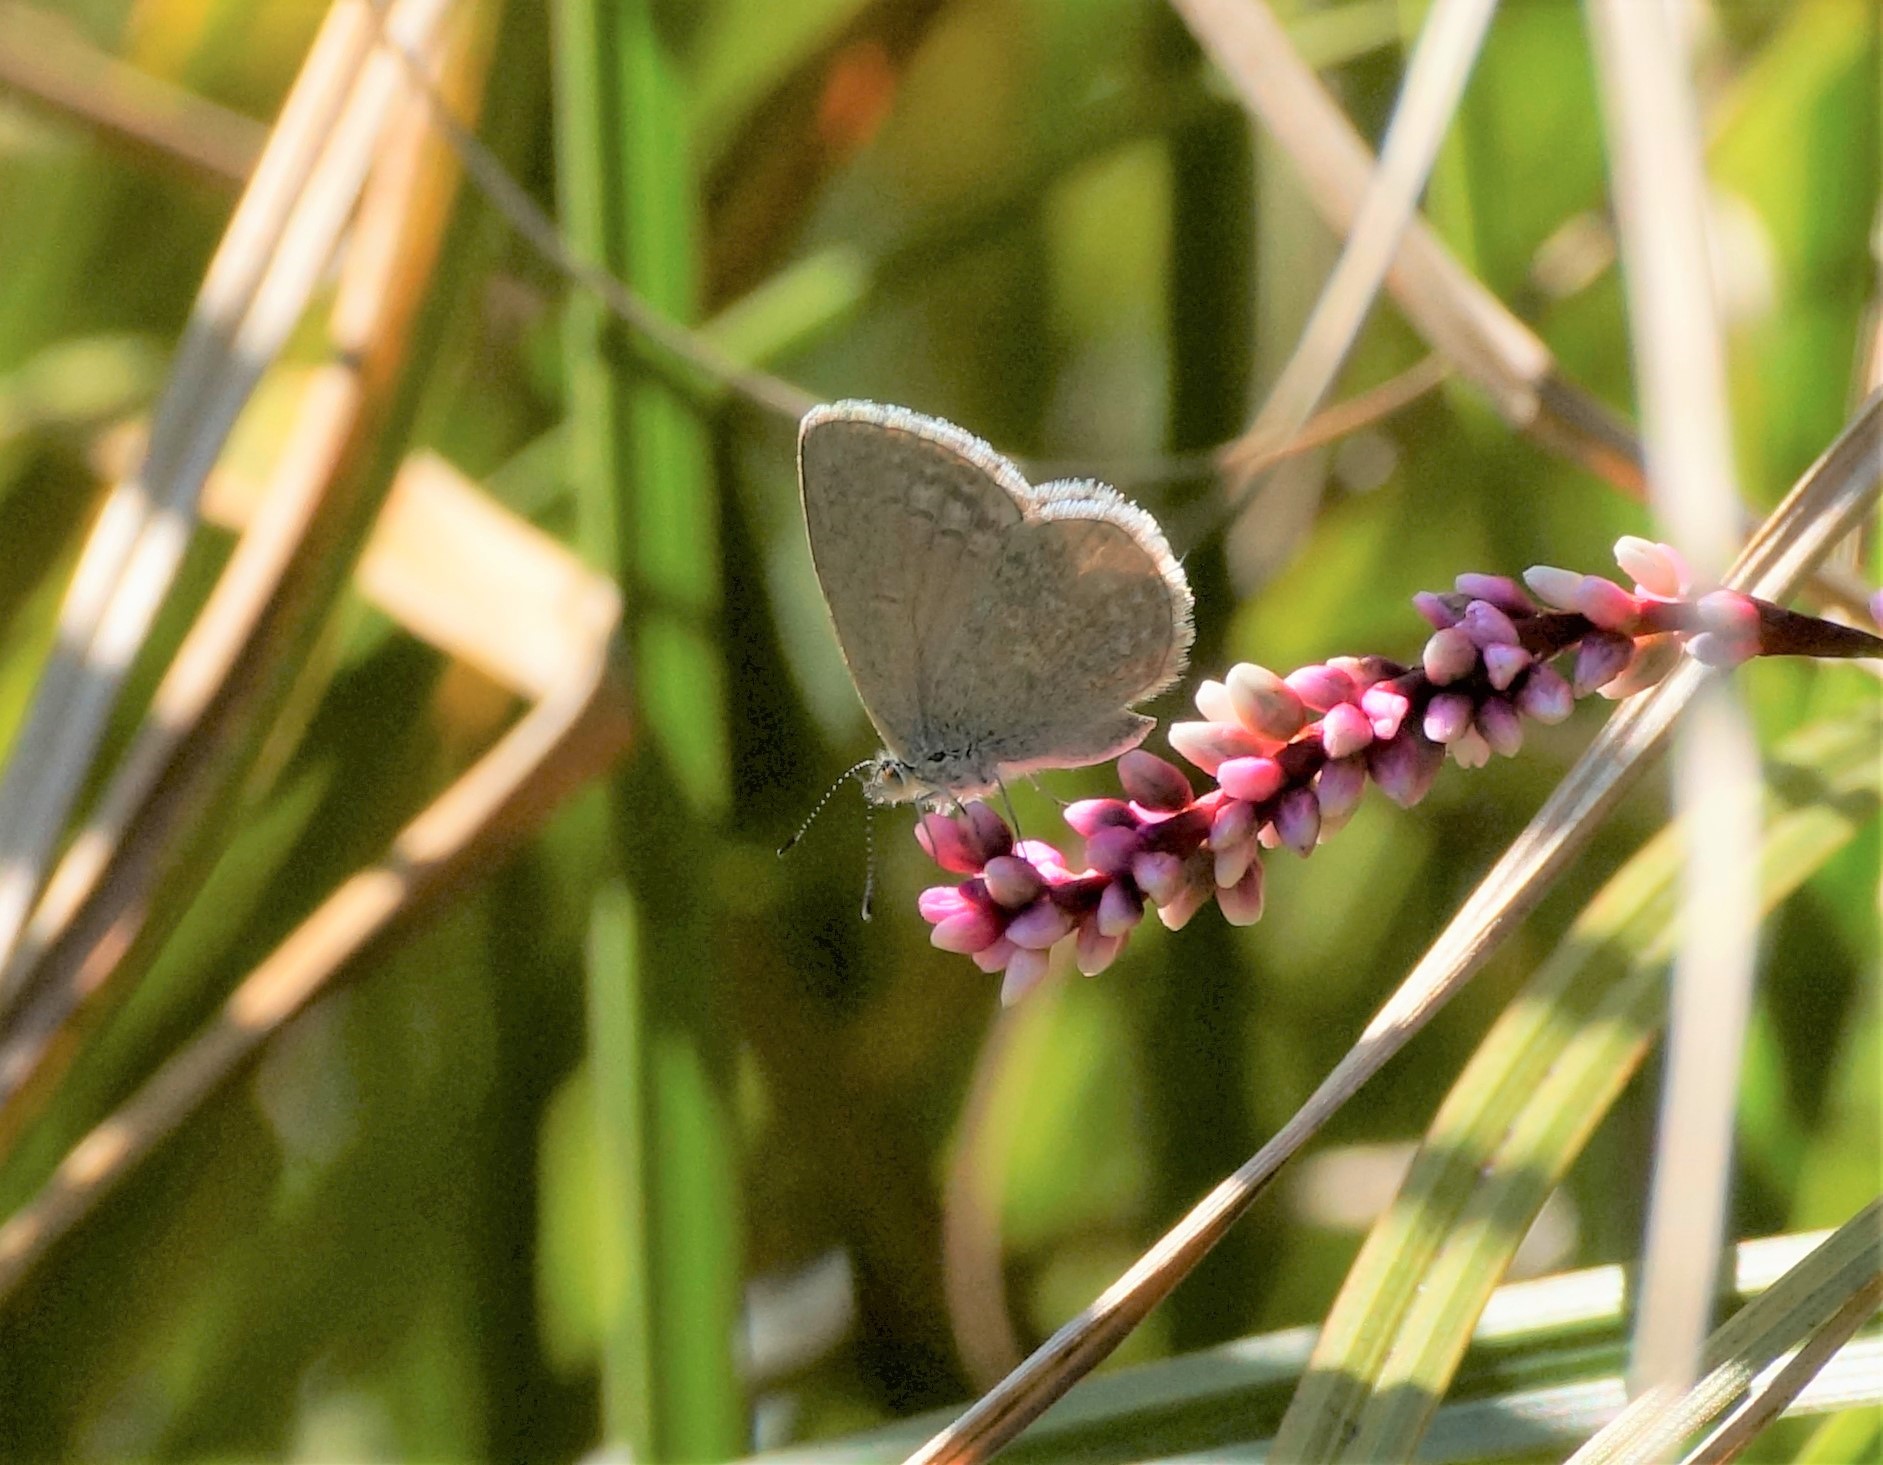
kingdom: Animalia
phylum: Arthropoda
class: Insecta
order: Lepidoptera
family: Lycaenidae
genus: Zizina
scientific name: Zizina otis
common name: Lesser grass blue
